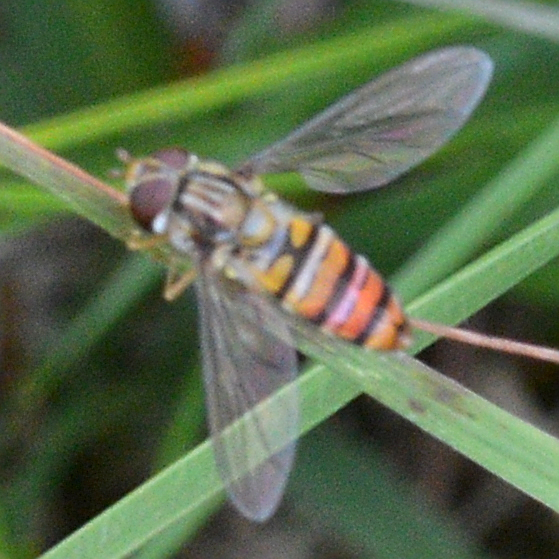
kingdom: Animalia
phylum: Arthropoda
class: Insecta
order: Diptera
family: Syrphidae
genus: Episyrphus
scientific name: Episyrphus balteatus
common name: Marmalade hoverfly
